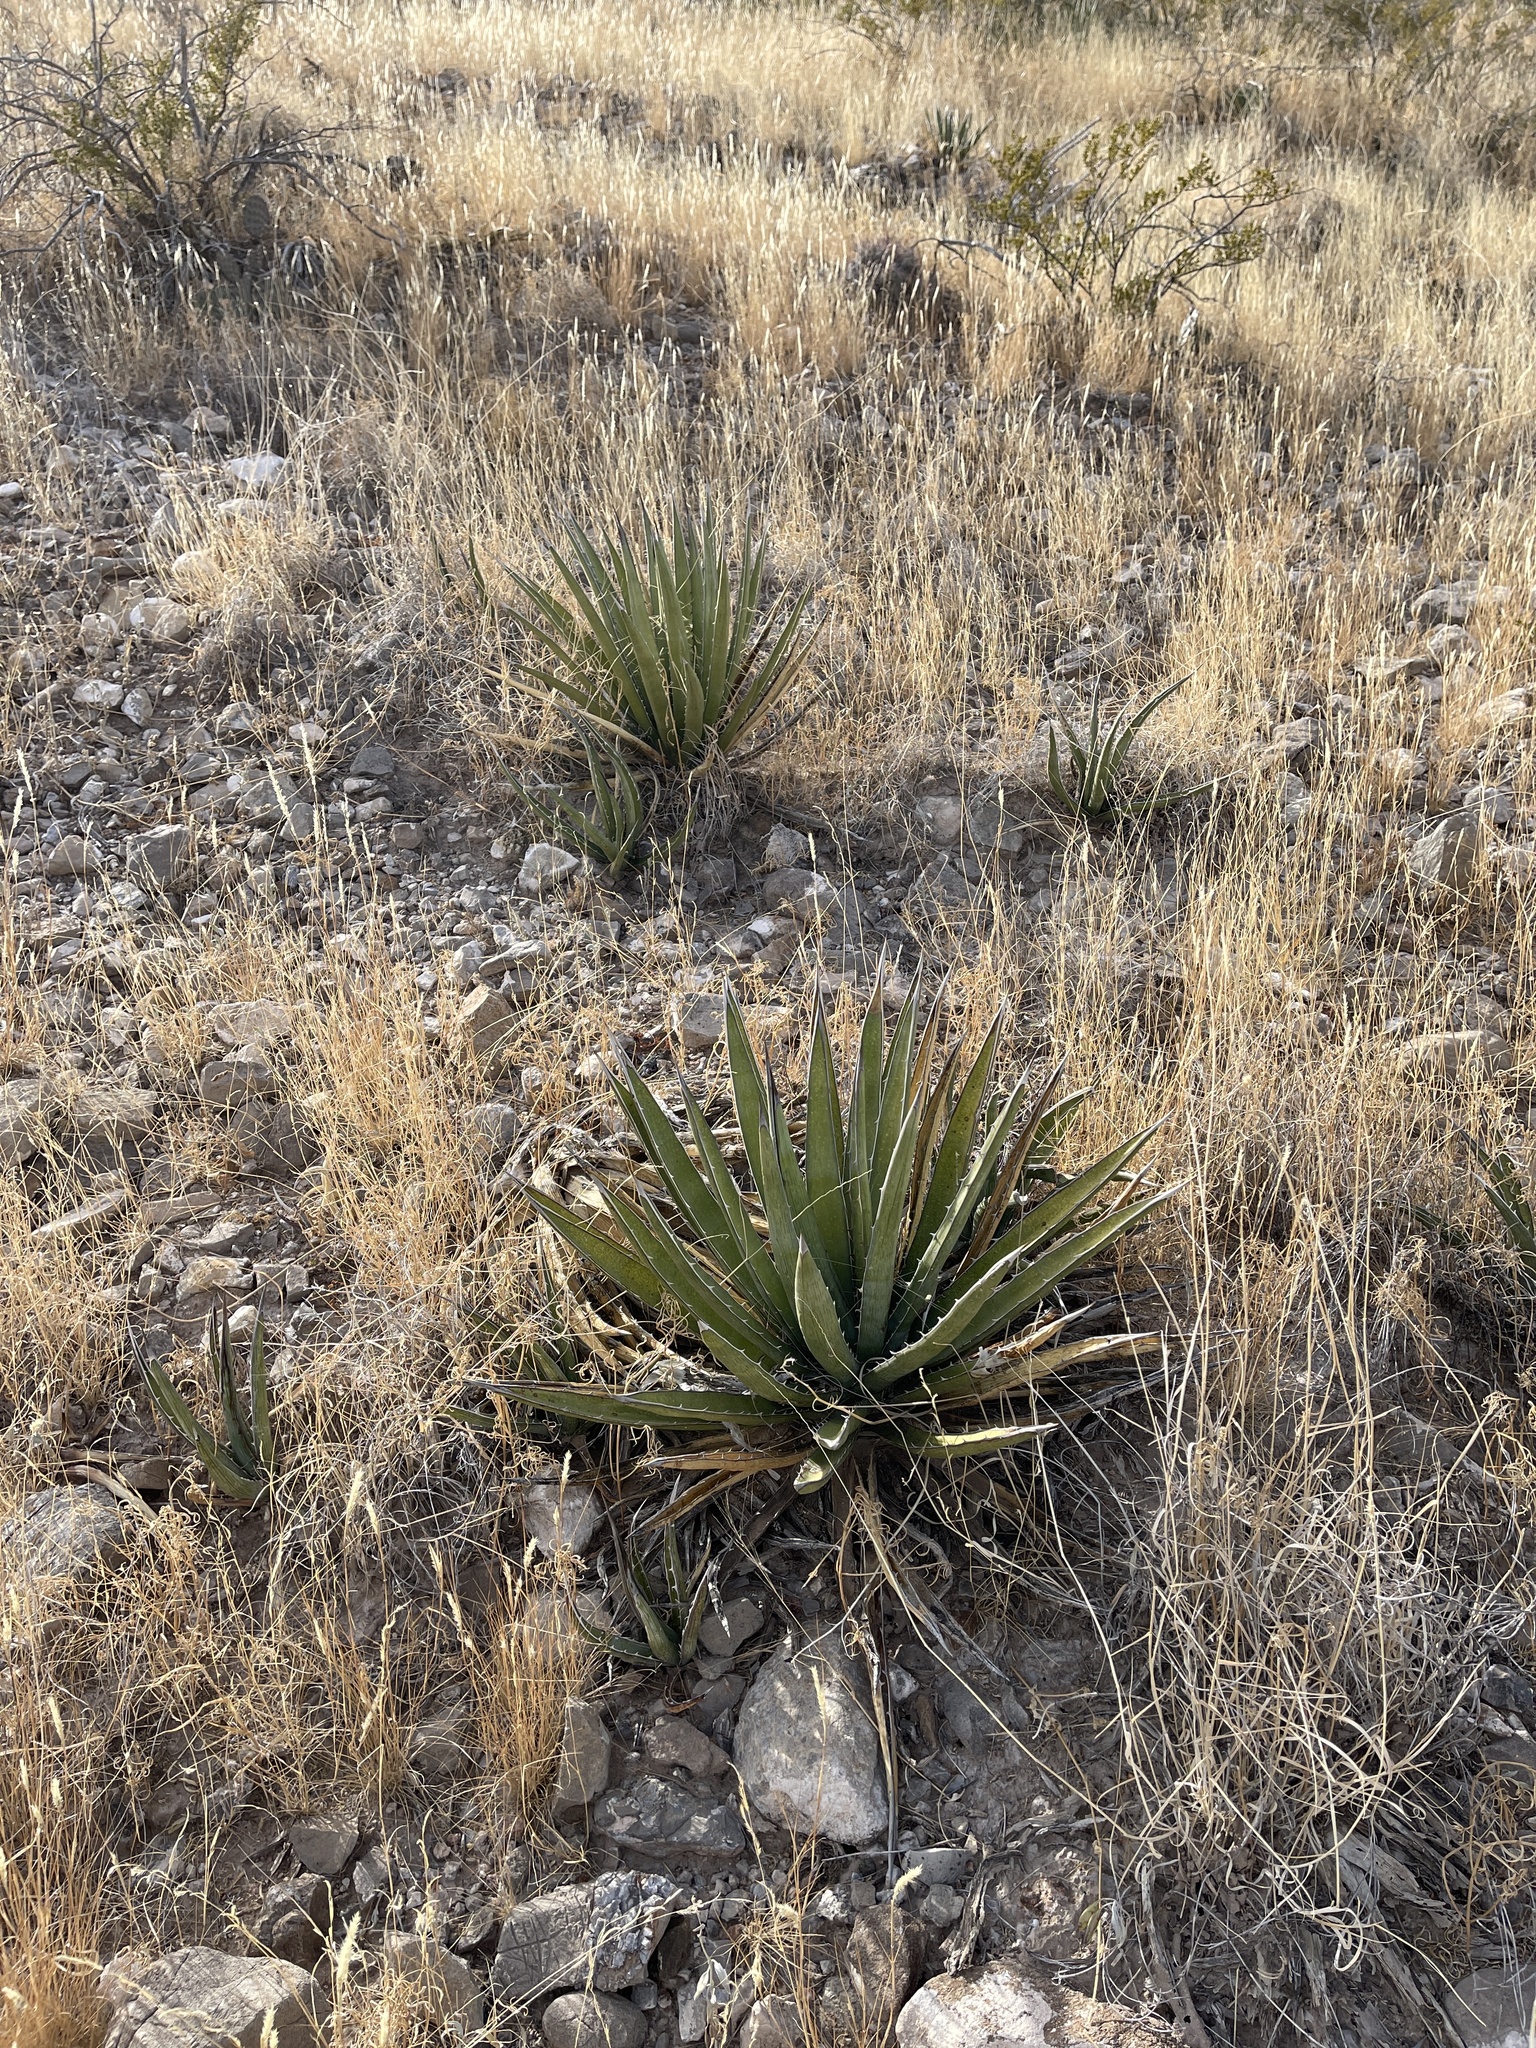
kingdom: Plantae
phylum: Tracheophyta
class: Liliopsida
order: Asparagales
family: Asparagaceae
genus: Agave
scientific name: Agave lechuguilla
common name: Lecheguilla agave
